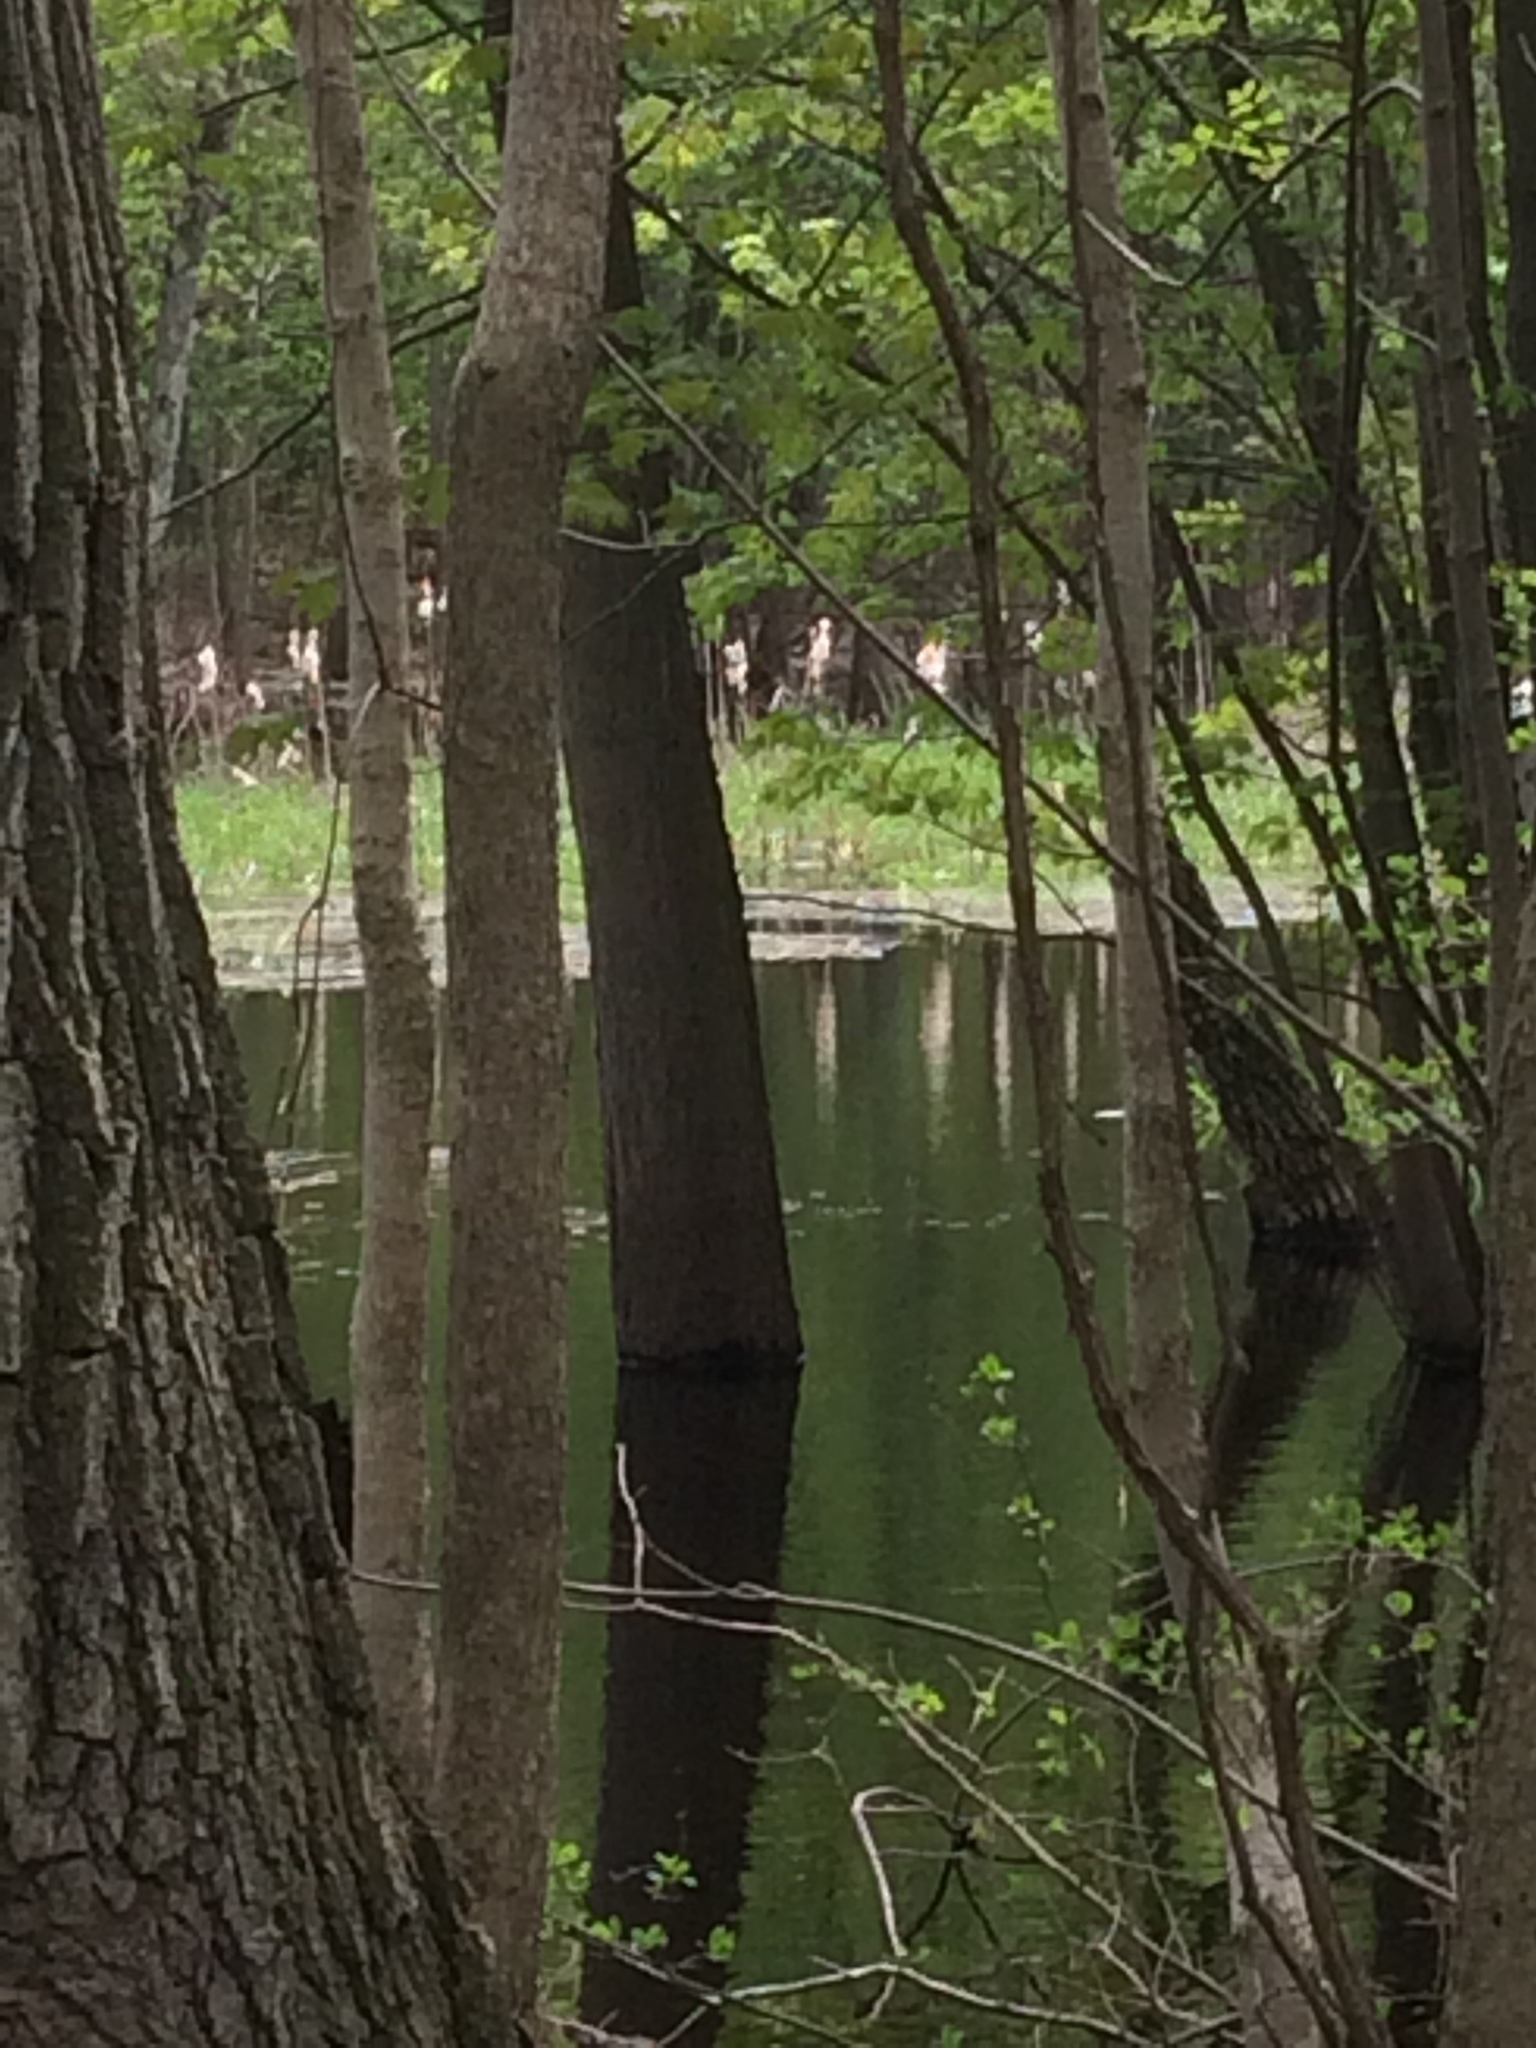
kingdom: Plantae
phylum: Tracheophyta
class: Liliopsida
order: Poales
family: Typhaceae
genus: Typha
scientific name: Typha
